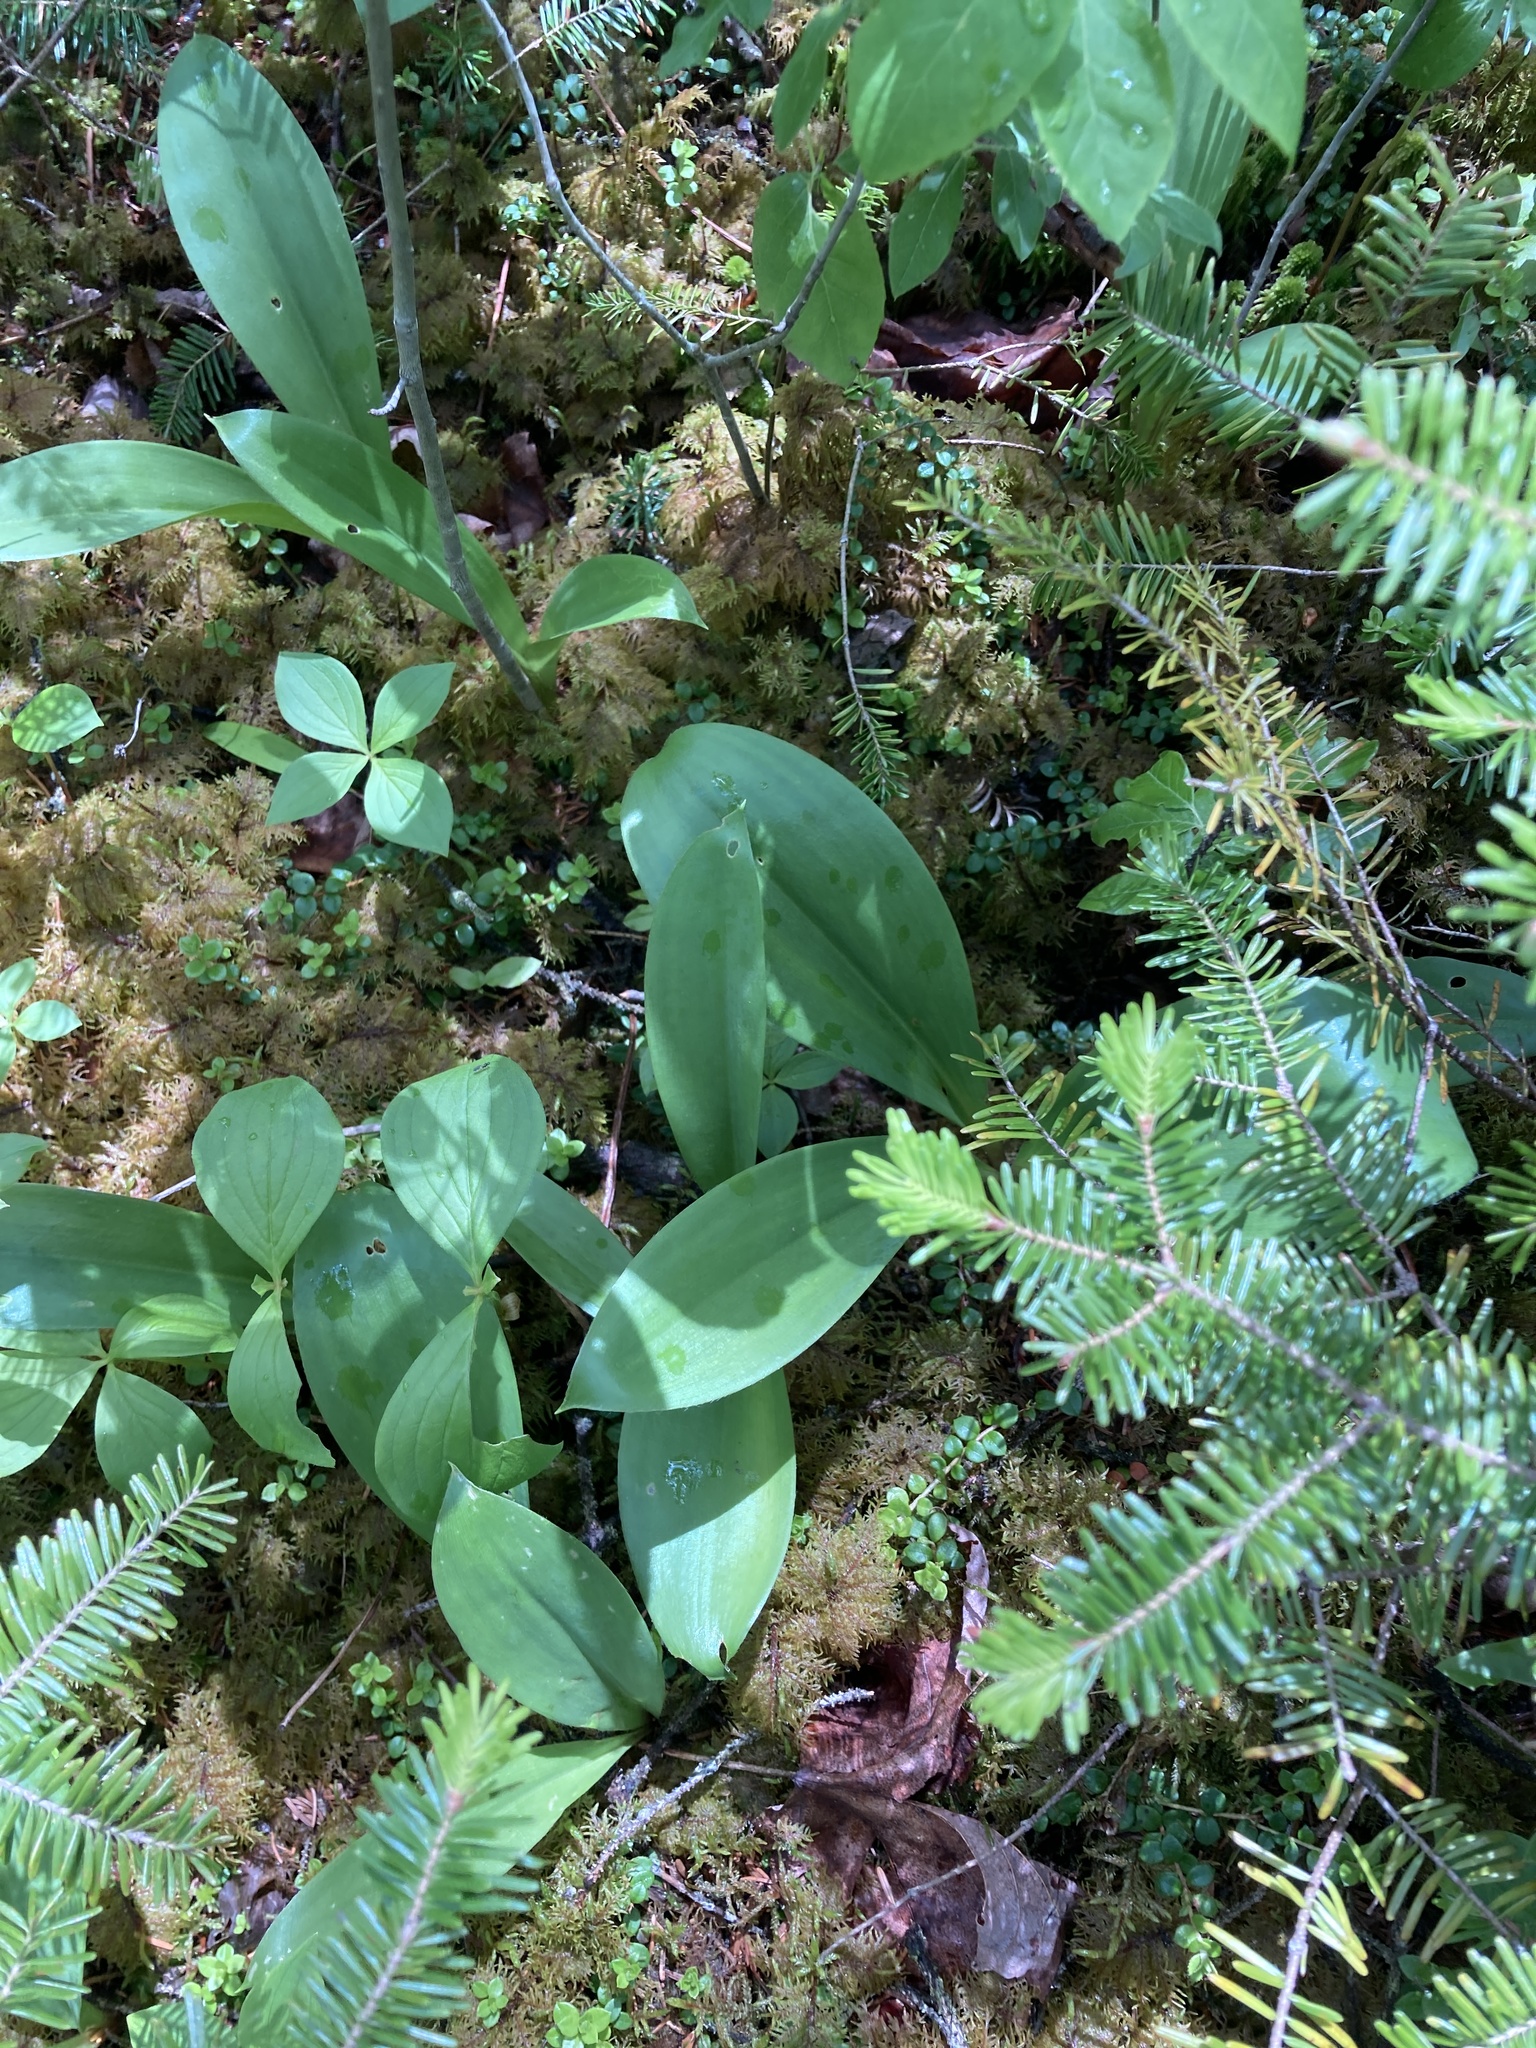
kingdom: Plantae
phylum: Tracheophyta
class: Liliopsida
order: Liliales
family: Liliaceae
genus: Clintonia
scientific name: Clintonia borealis
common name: Yellow clintonia
